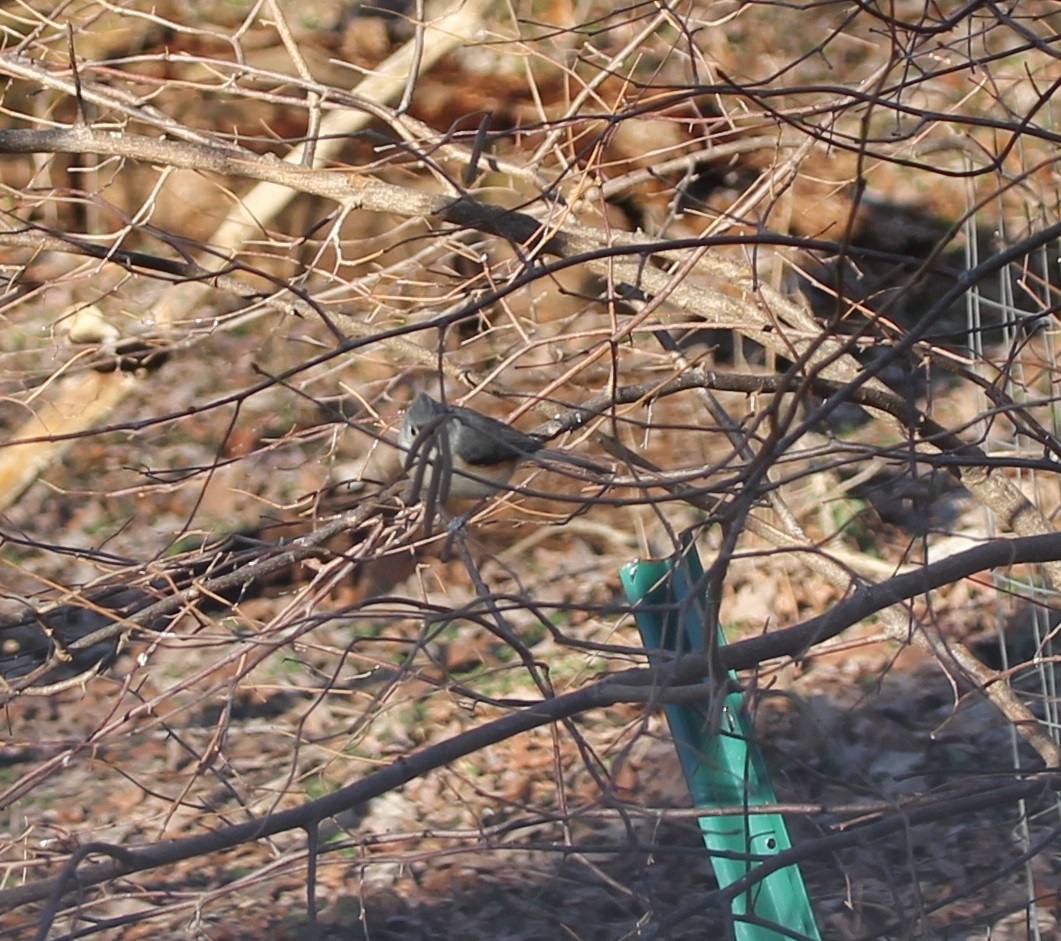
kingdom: Animalia
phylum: Chordata
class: Aves
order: Passeriformes
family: Paridae
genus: Baeolophus
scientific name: Baeolophus bicolor
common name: Tufted titmouse
